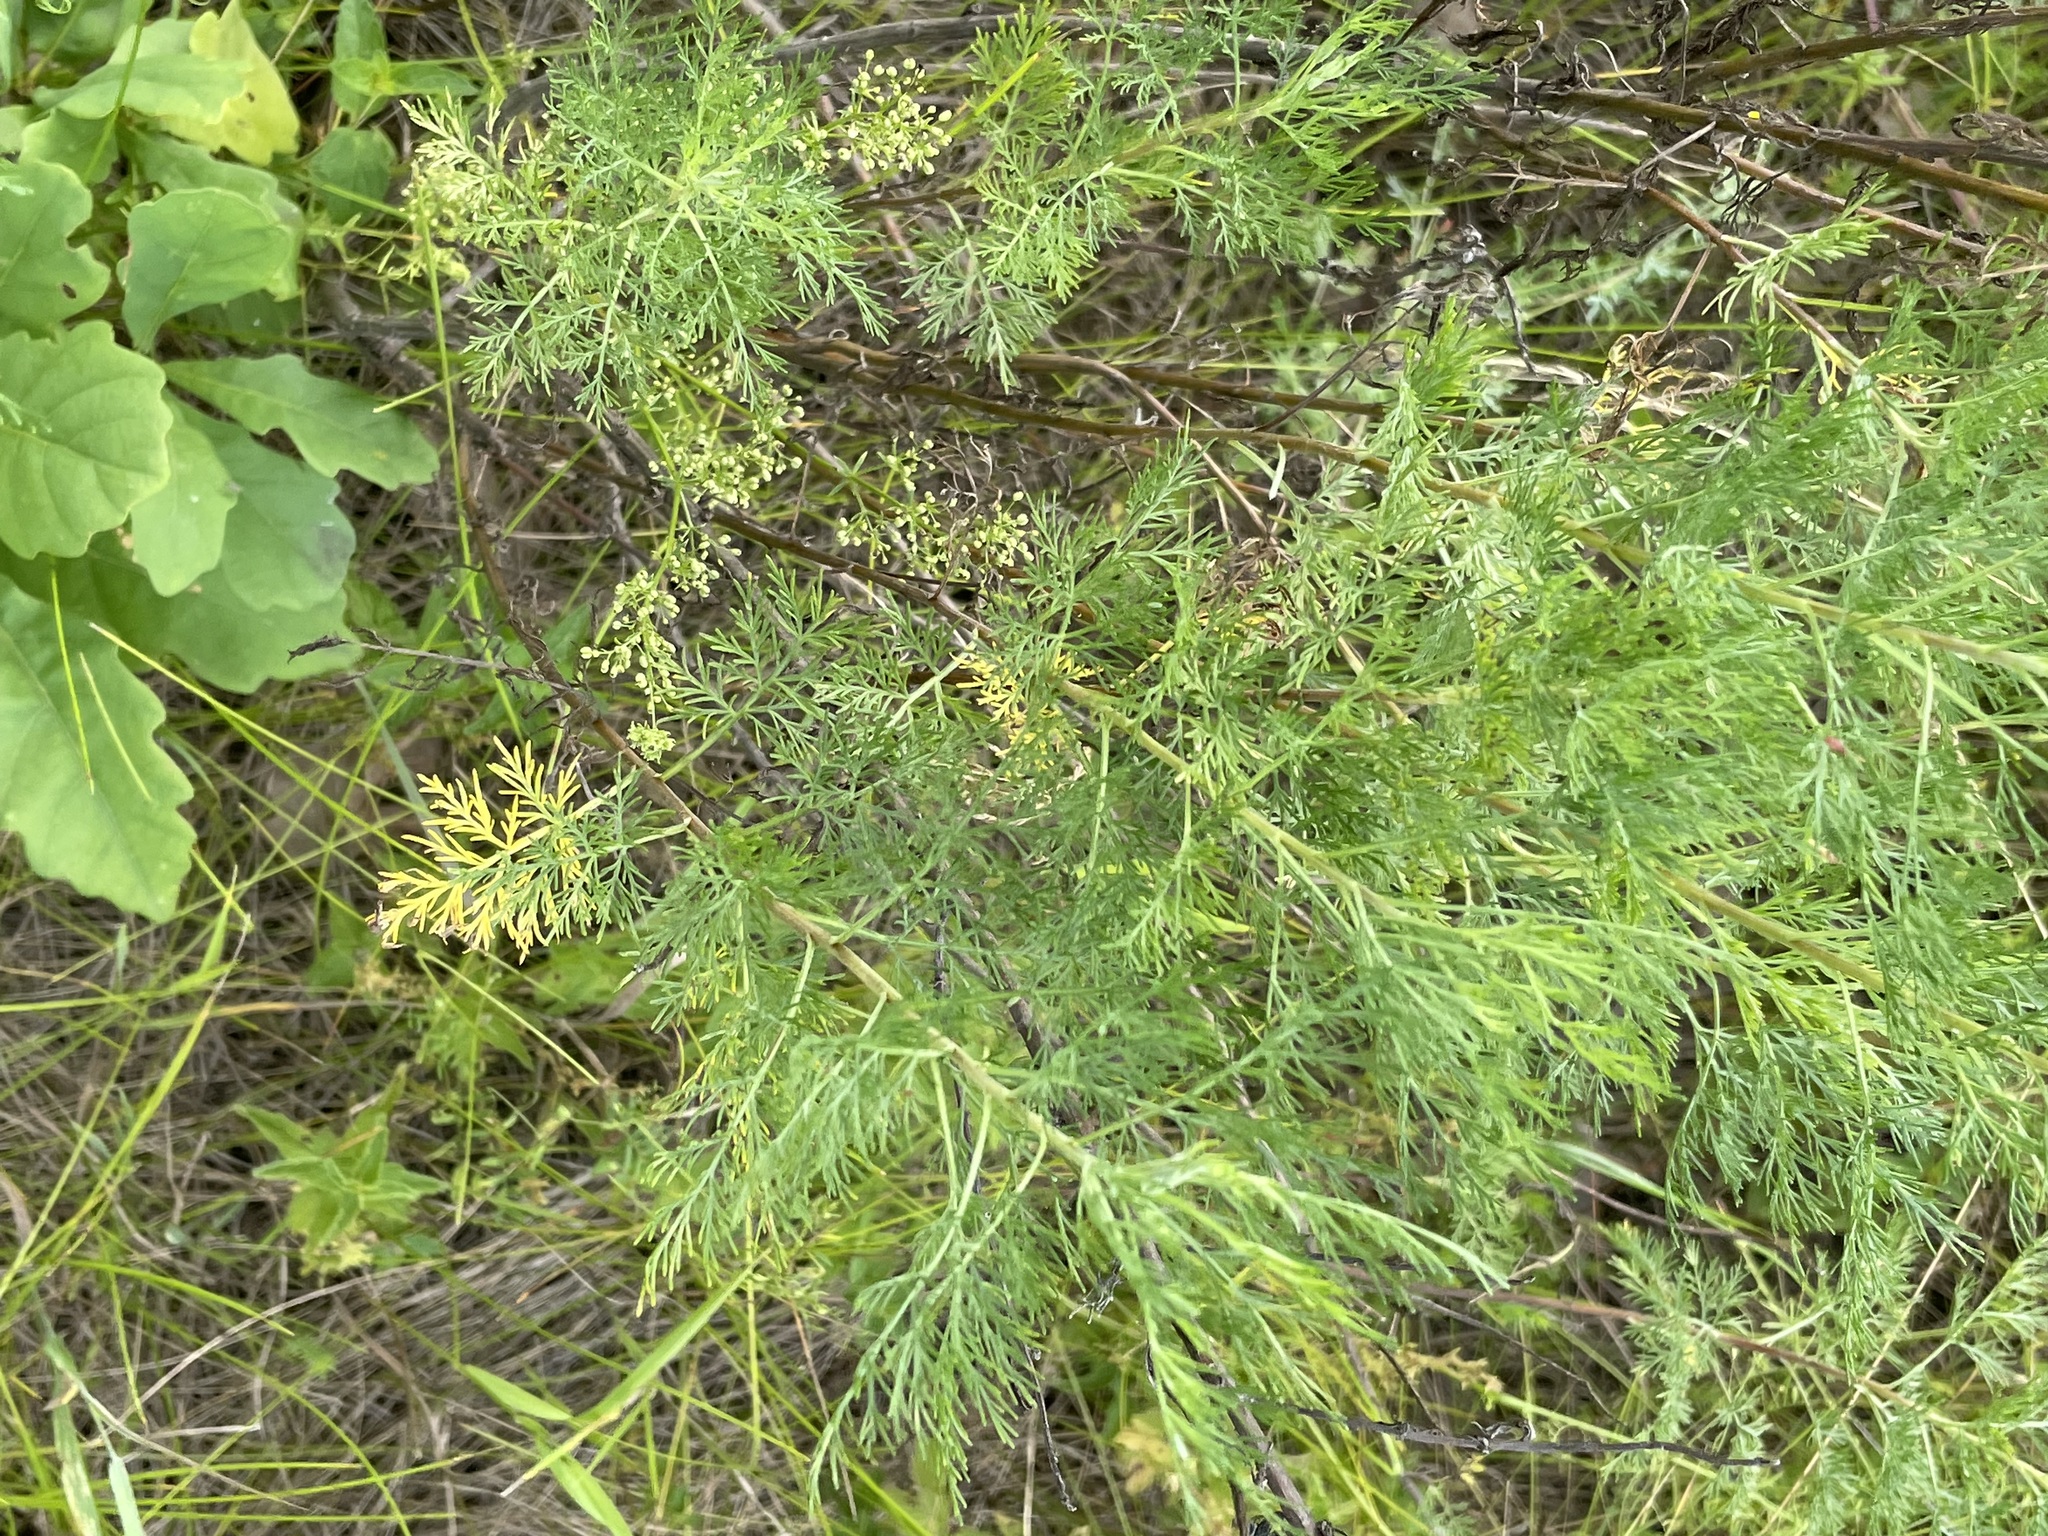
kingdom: Plantae
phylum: Tracheophyta
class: Magnoliopsida
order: Asterales
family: Asteraceae
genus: Artemisia
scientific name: Artemisia abrotanum
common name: Southernwood
